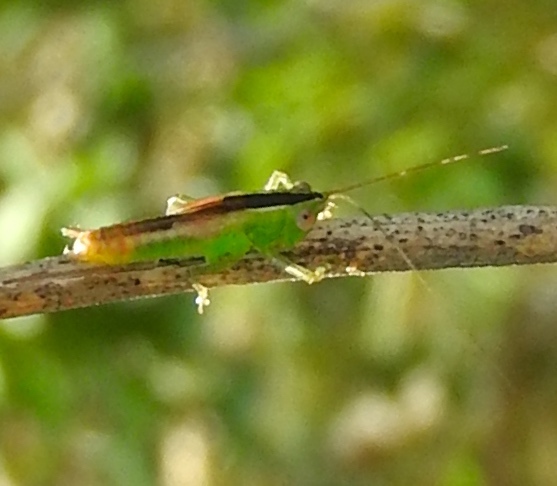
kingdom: Animalia
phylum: Arthropoda
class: Insecta
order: Orthoptera
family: Tettigoniidae
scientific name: Tettigoniidae
